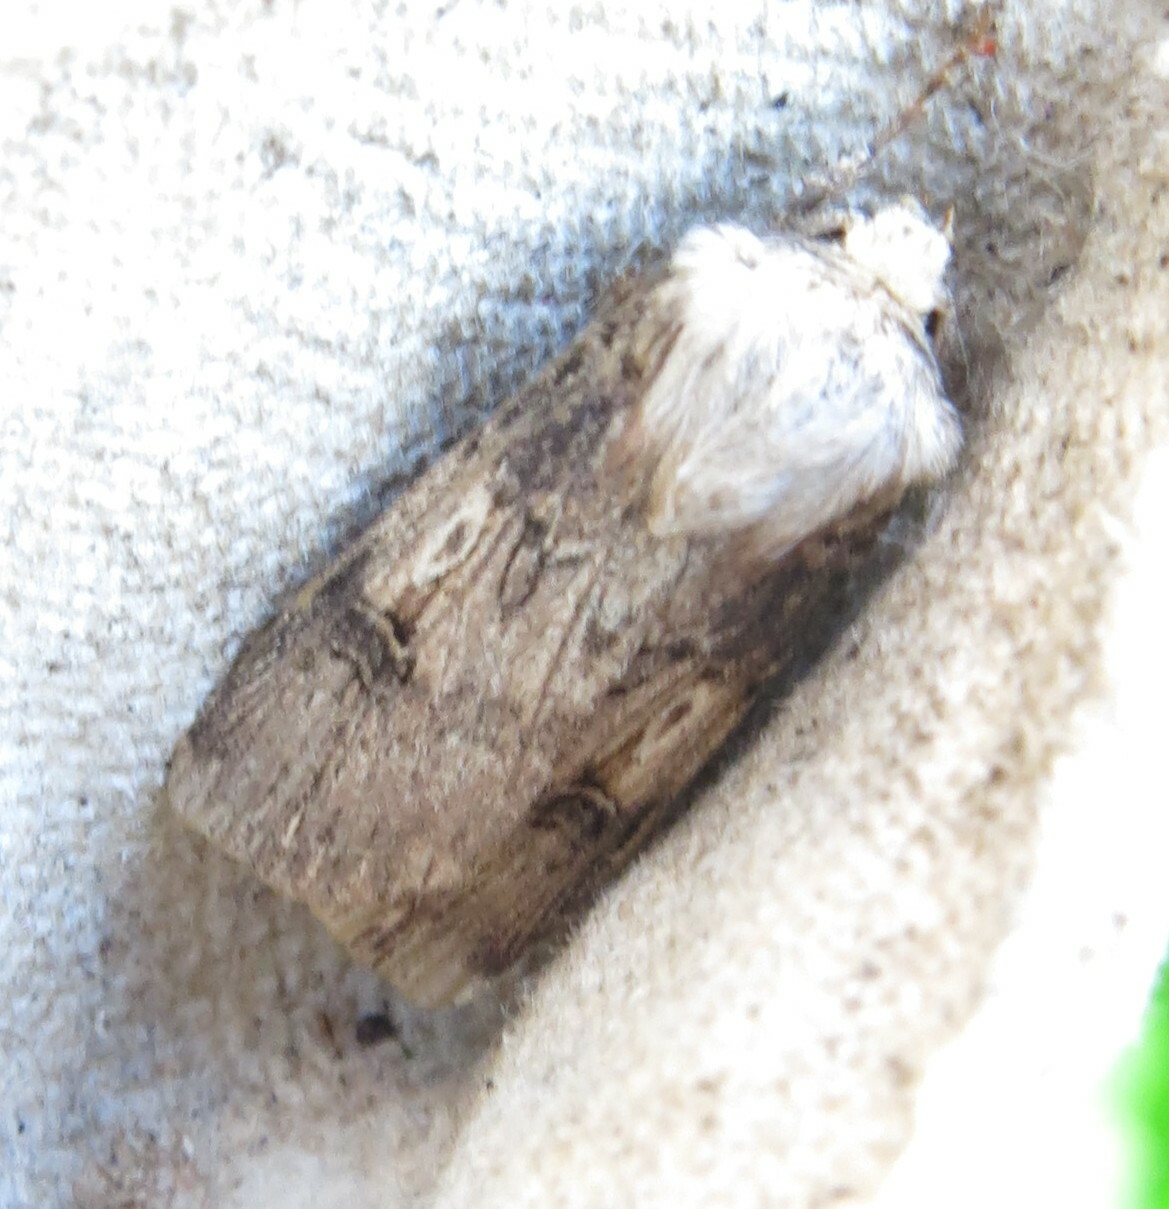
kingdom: Animalia
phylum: Arthropoda
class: Insecta
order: Lepidoptera
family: Noctuidae
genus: Agrotis
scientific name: Agrotis puta
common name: Shuttle-shaped dart
